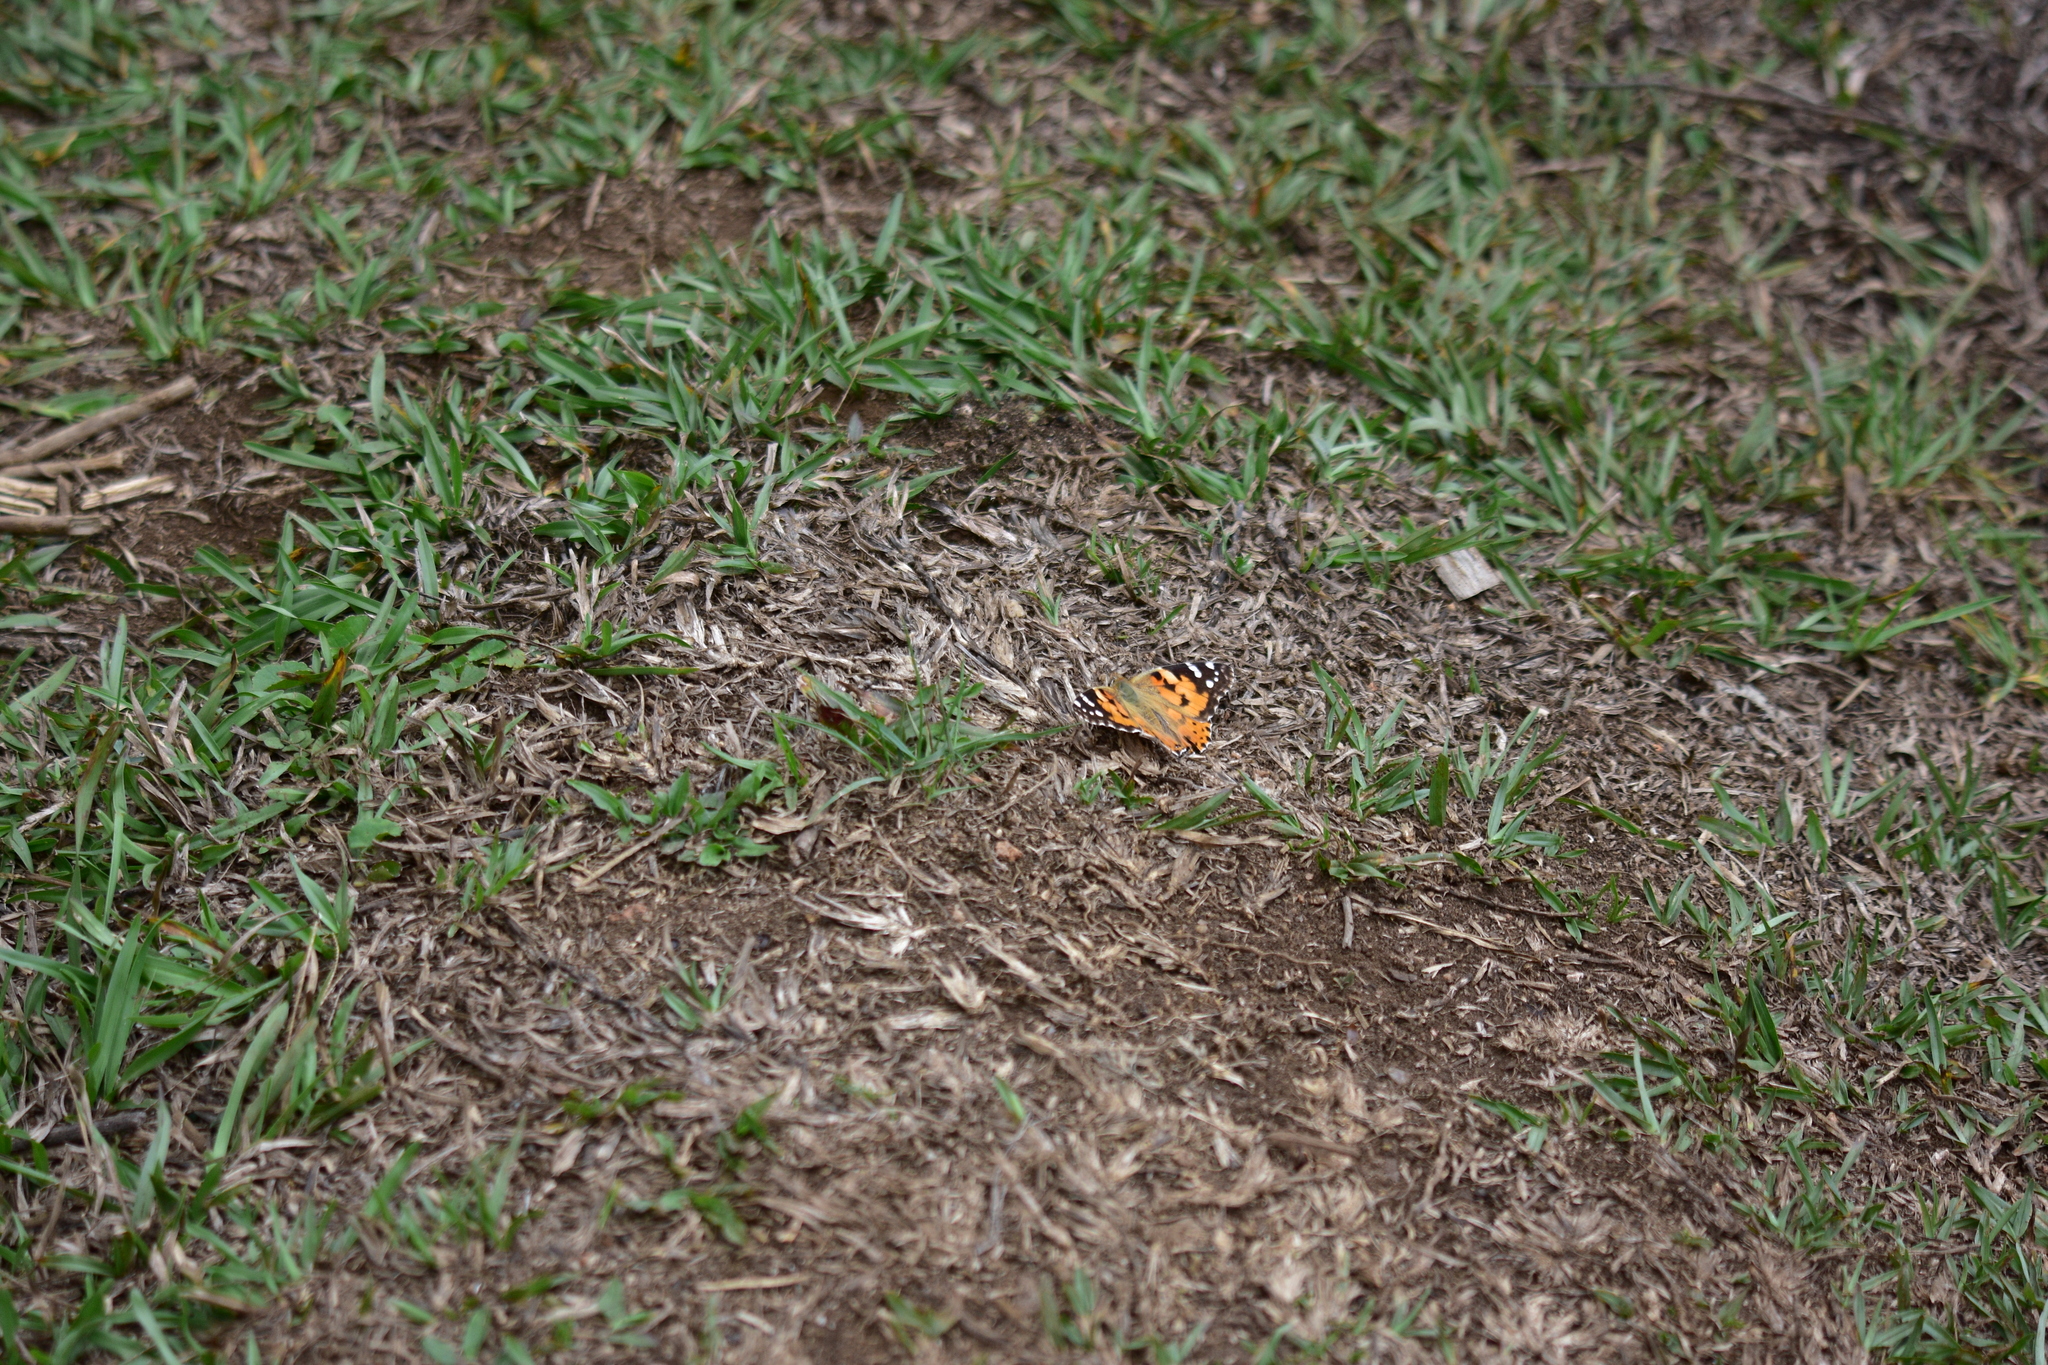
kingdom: Animalia
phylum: Arthropoda
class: Insecta
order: Lepidoptera
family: Nymphalidae
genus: Vanessa
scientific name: Vanessa cardui
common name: Painted lady
